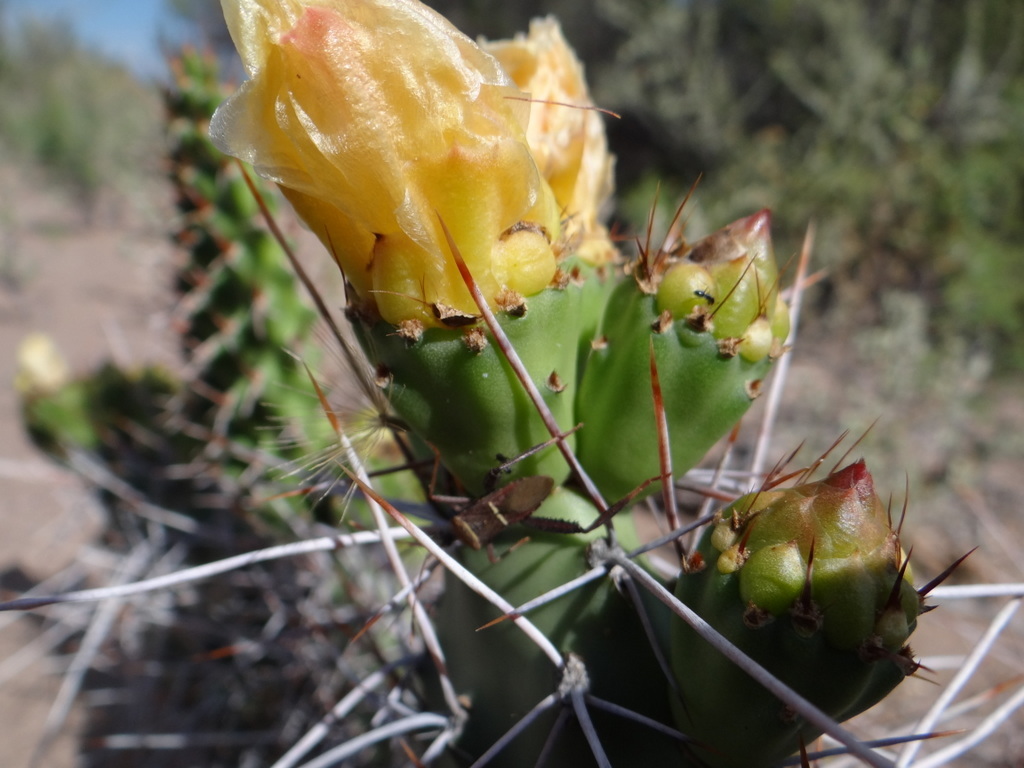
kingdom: Animalia
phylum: Arthropoda
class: Insecta
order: Hemiptera
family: Coreidae
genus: Leptoglossus
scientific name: Leptoglossus crassicornis
